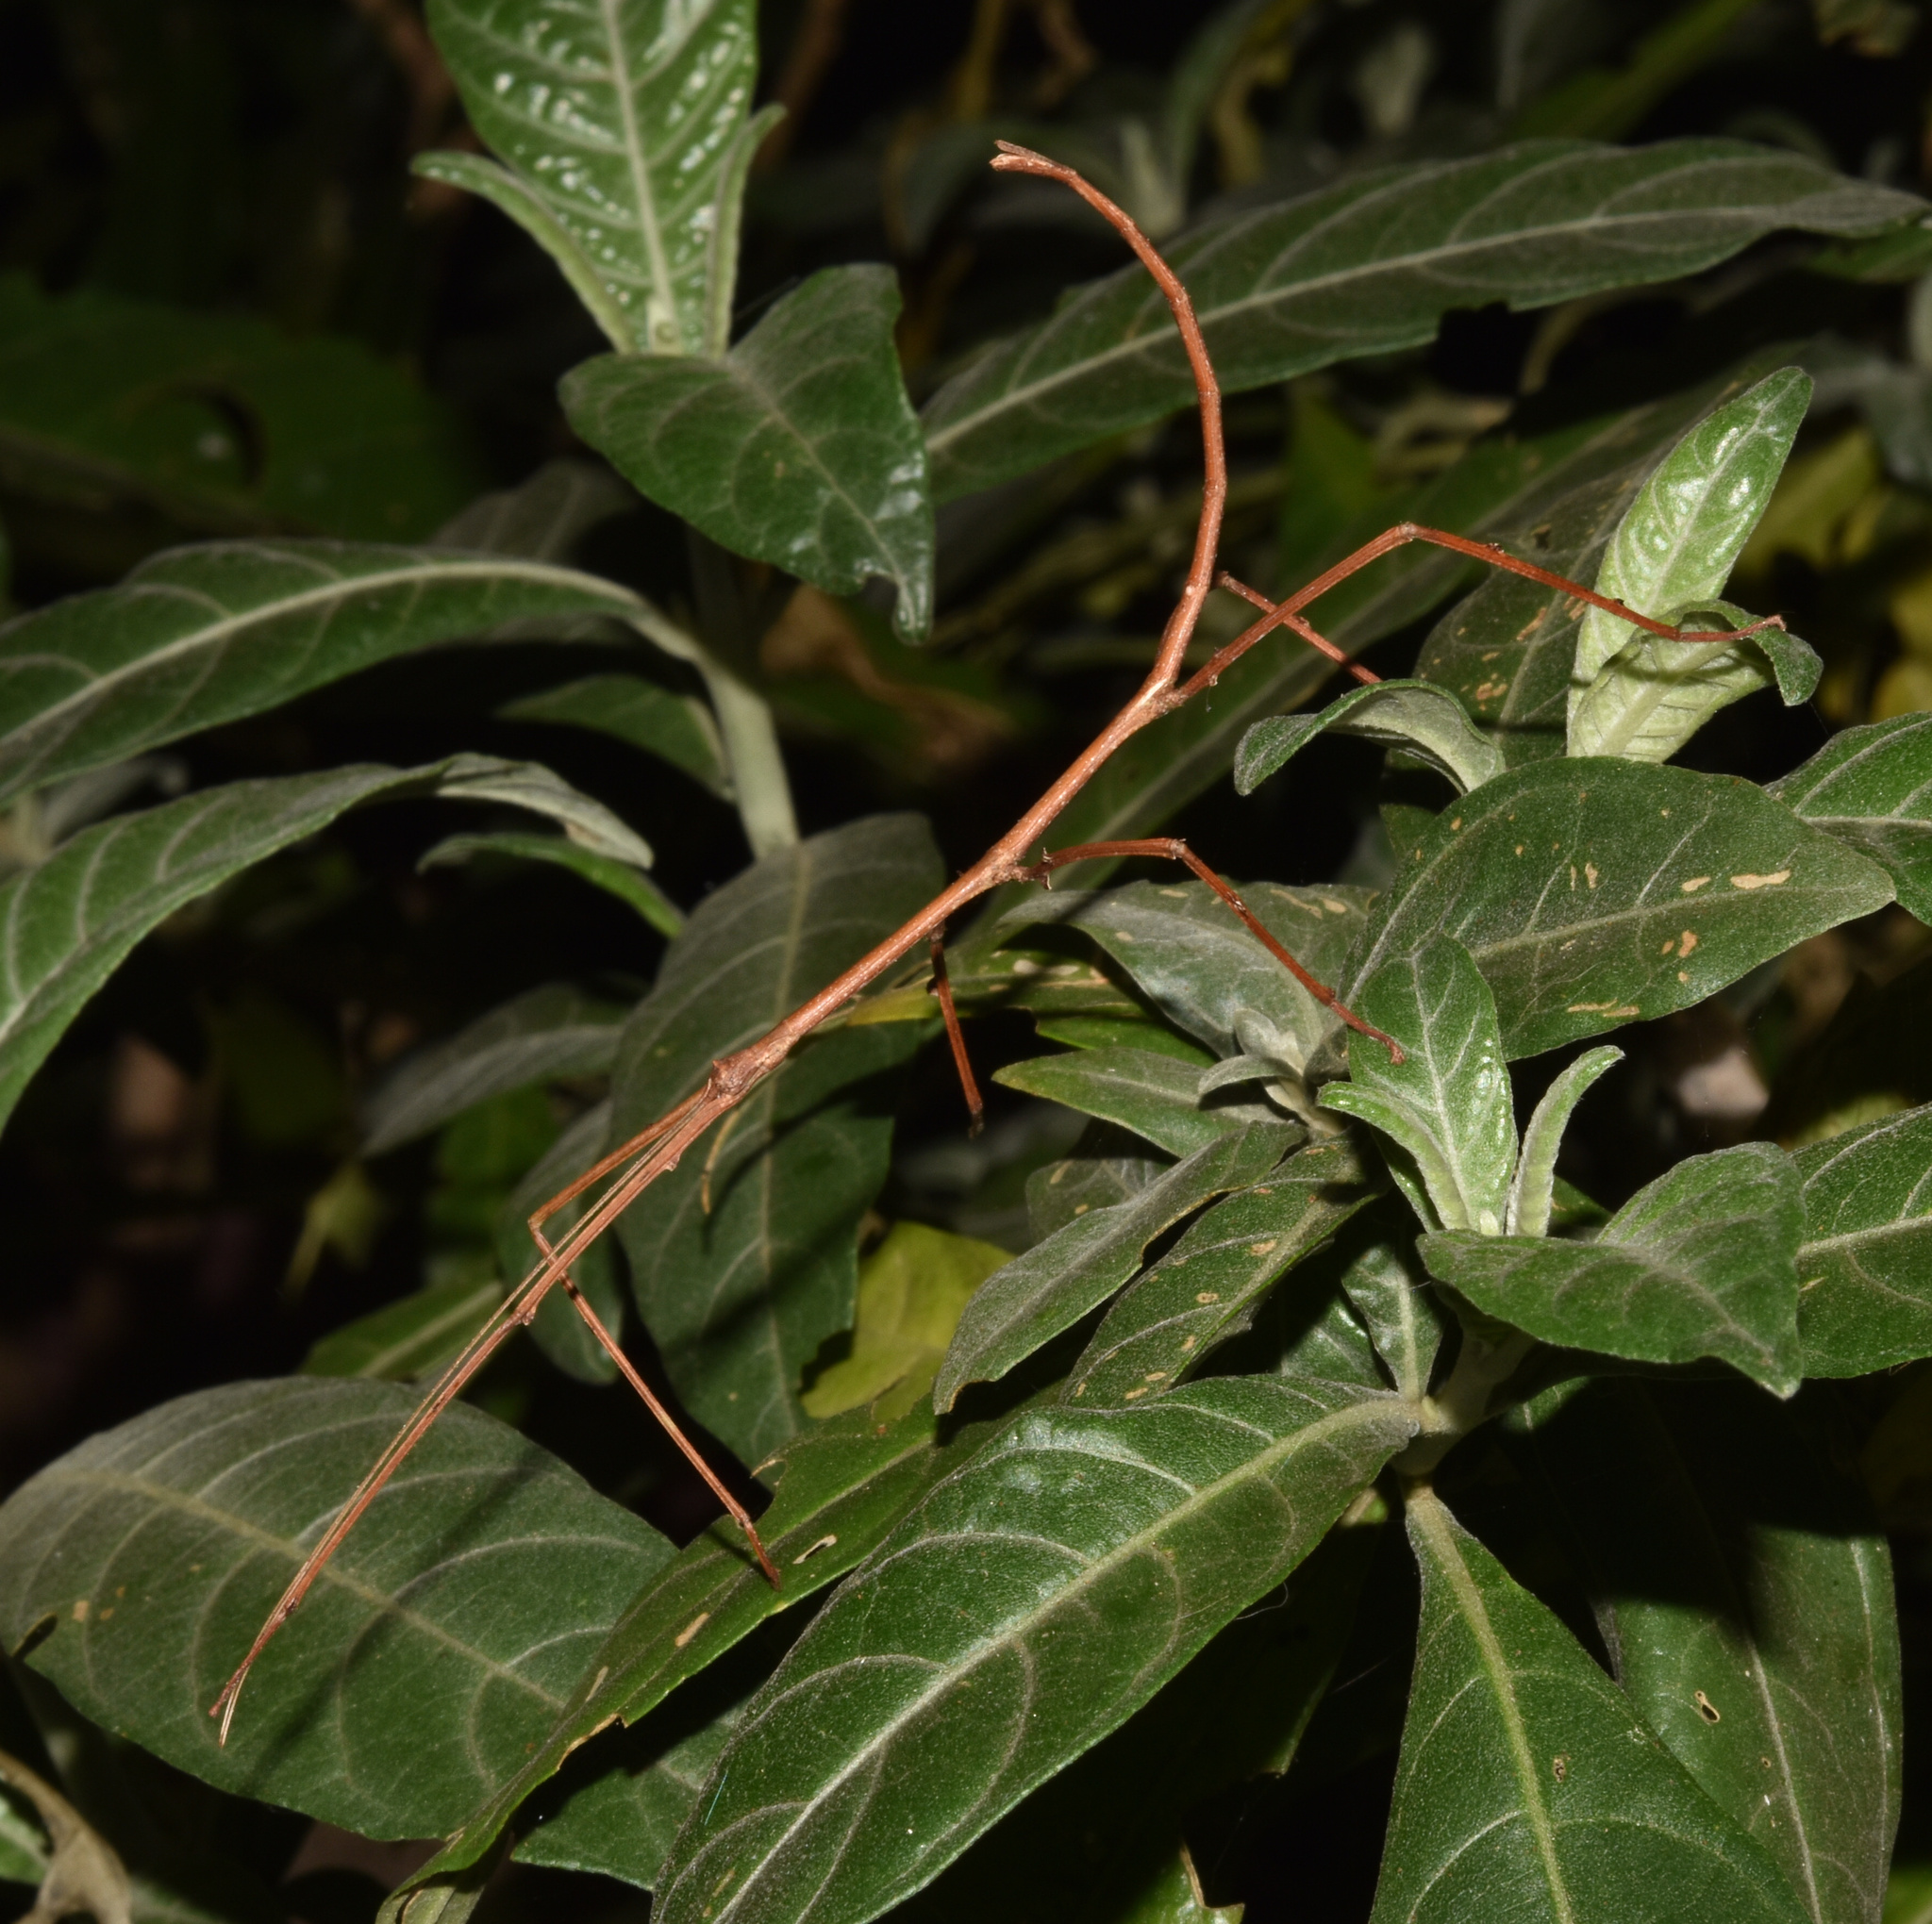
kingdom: Animalia
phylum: Arthropoda
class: Insecta
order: Phasmida
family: Diapheromeridae
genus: Bactricia
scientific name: Bactricia bituberculata
